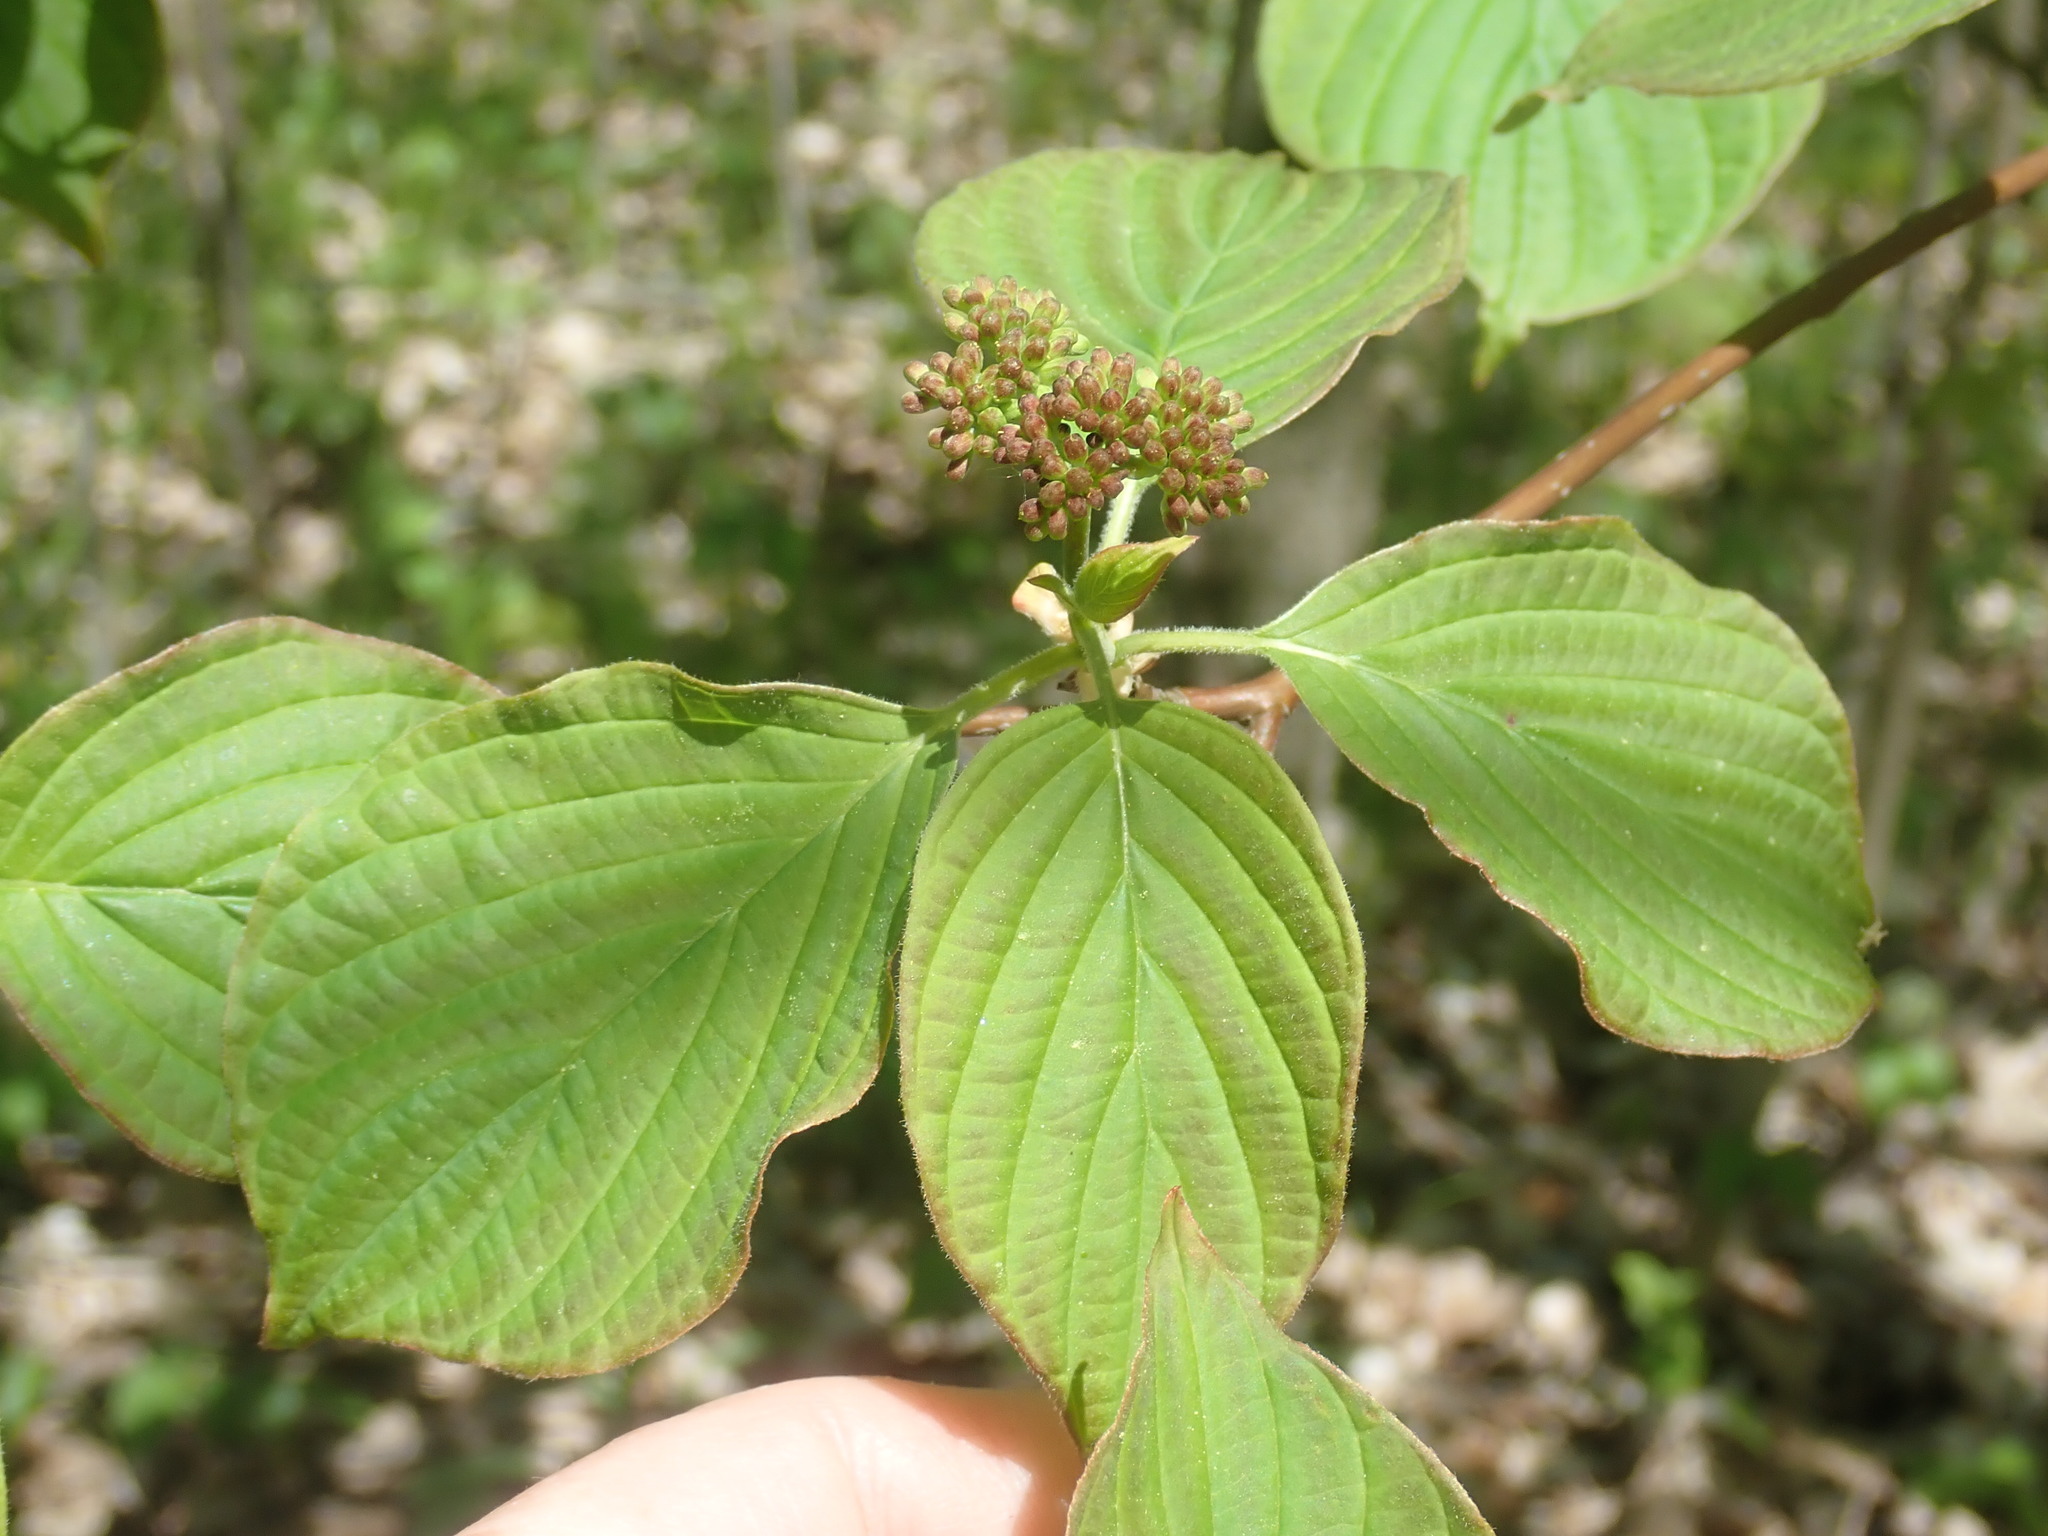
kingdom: Plantae
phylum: Tracheophyta
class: Magnoliopsida
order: Cornales
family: Cornaceae
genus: Cornus
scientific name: Cornus alternifolia
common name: Pagoda dogwood
